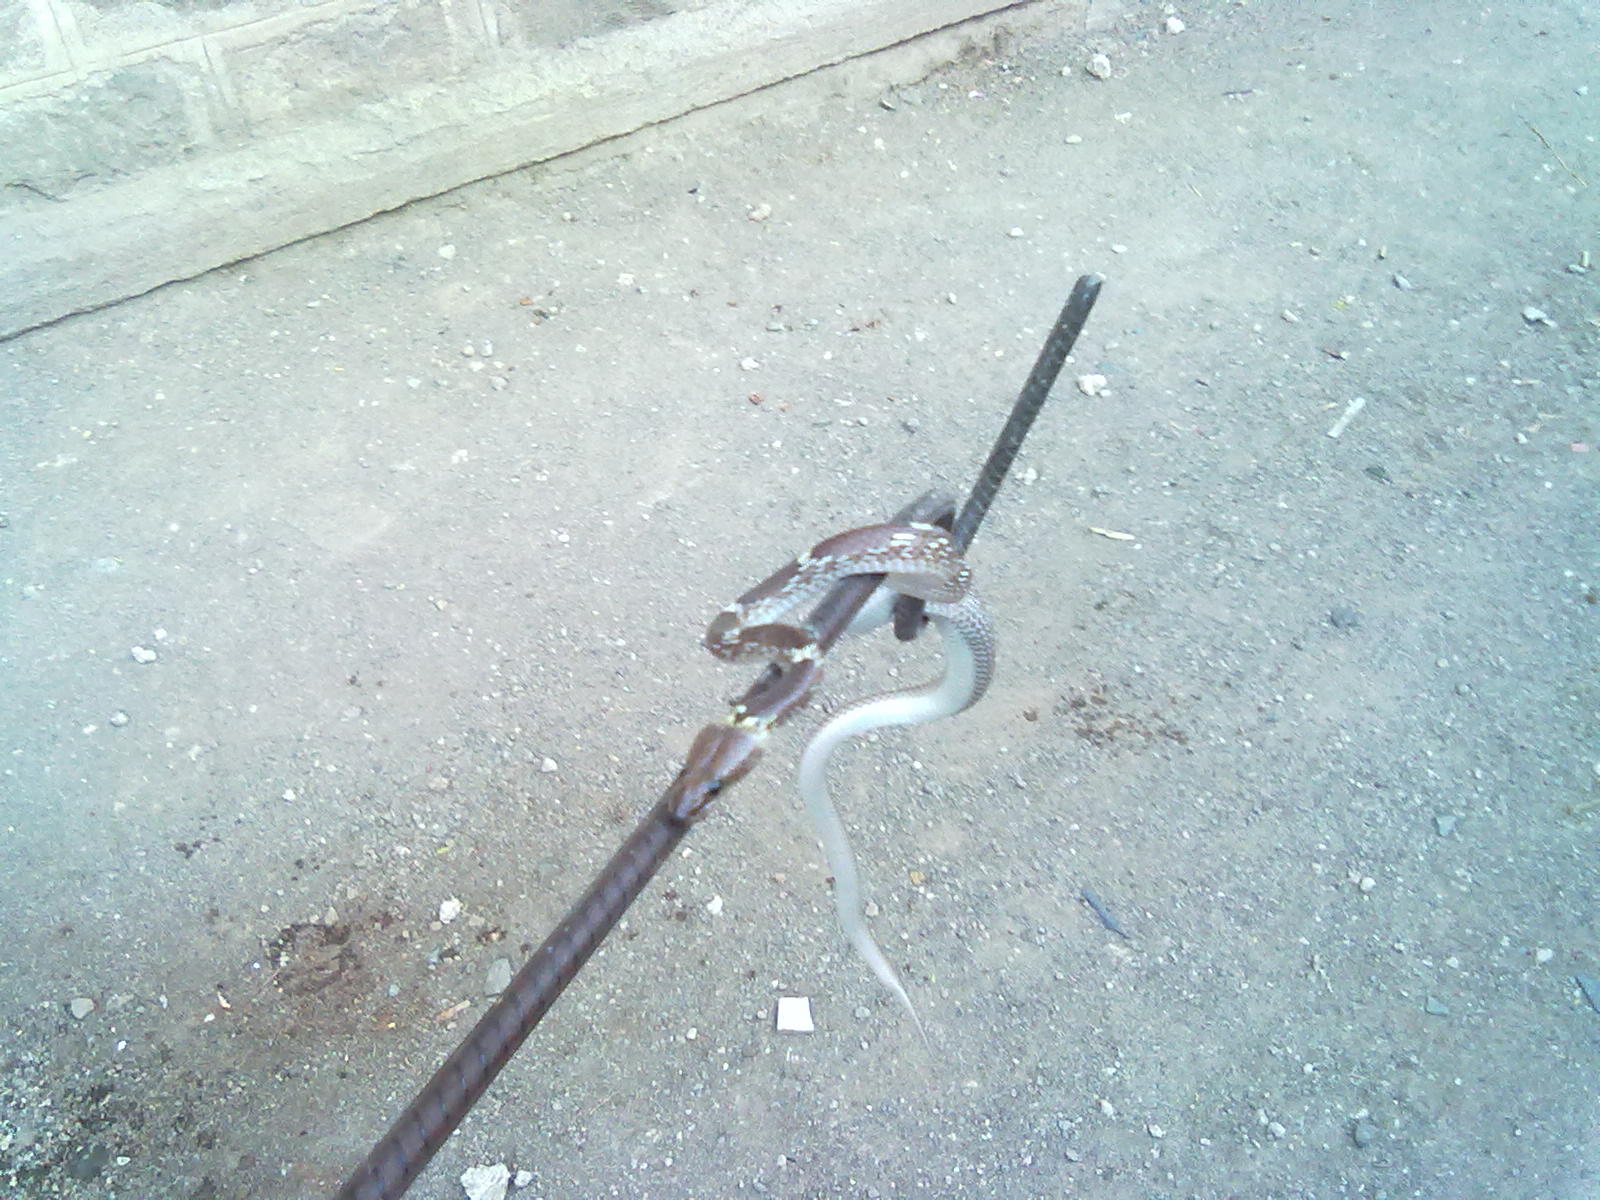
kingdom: Animalia
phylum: Chordata
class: Squamata
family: Colubridae
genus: Lycodon
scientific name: Lycodon aulicus
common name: Common wolf snake
